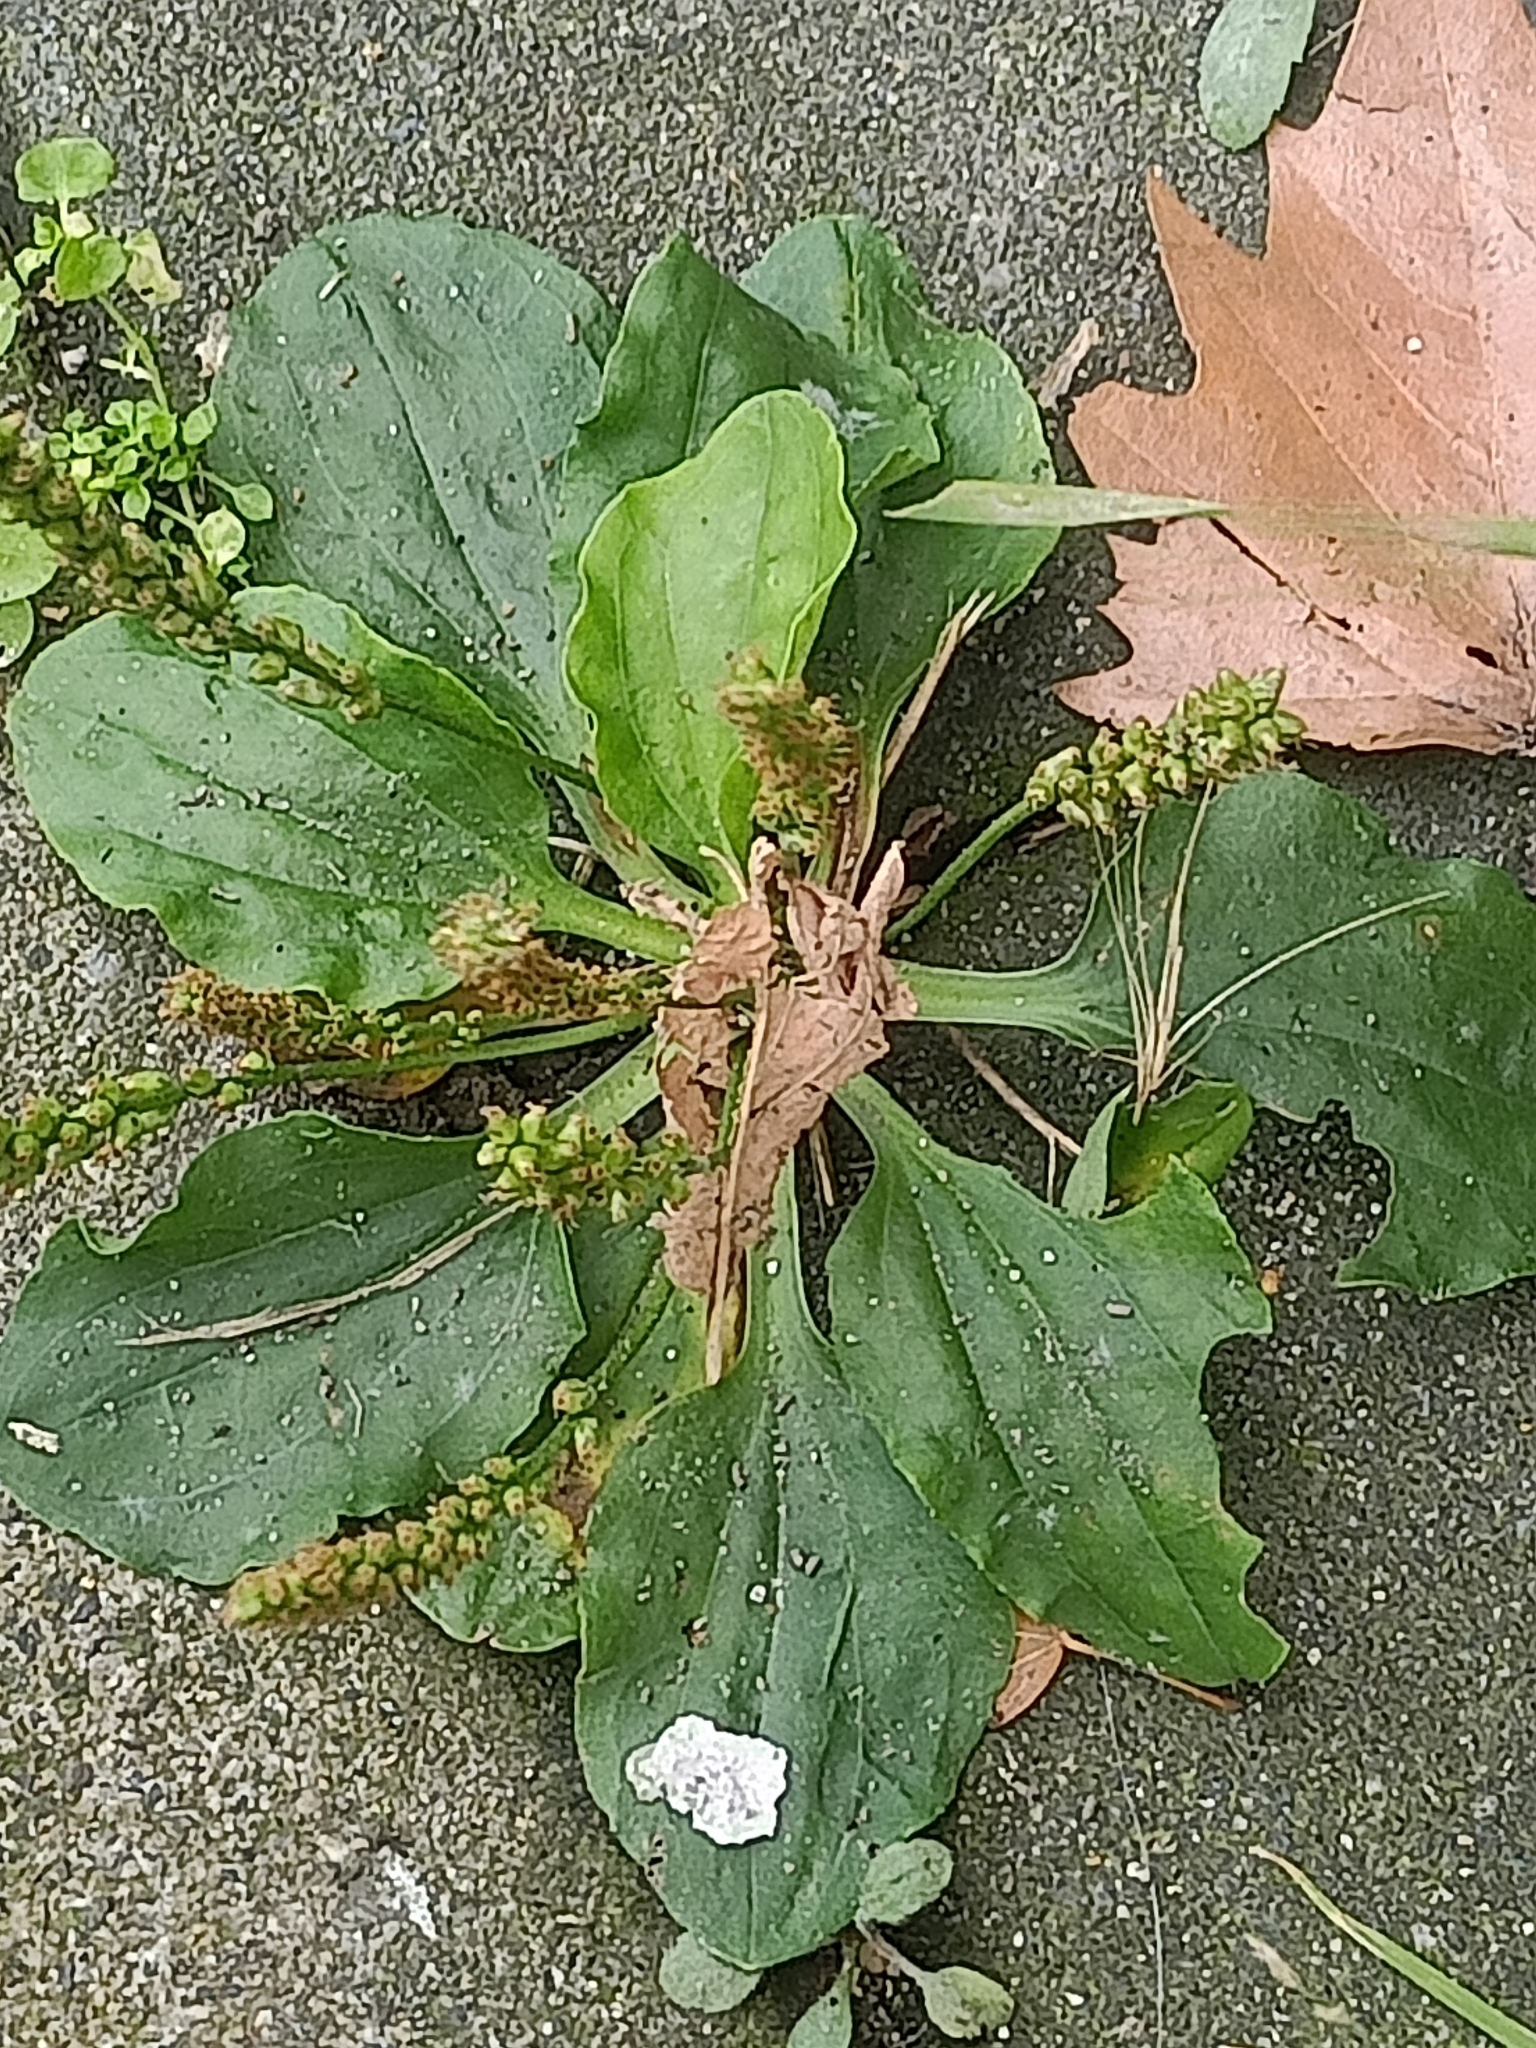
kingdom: Plantae
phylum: Tracheophyta
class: Magnoliopsida
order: Lamiales
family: Plantaginaceae
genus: Plantago
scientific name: Plantago major
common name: Common plantain
